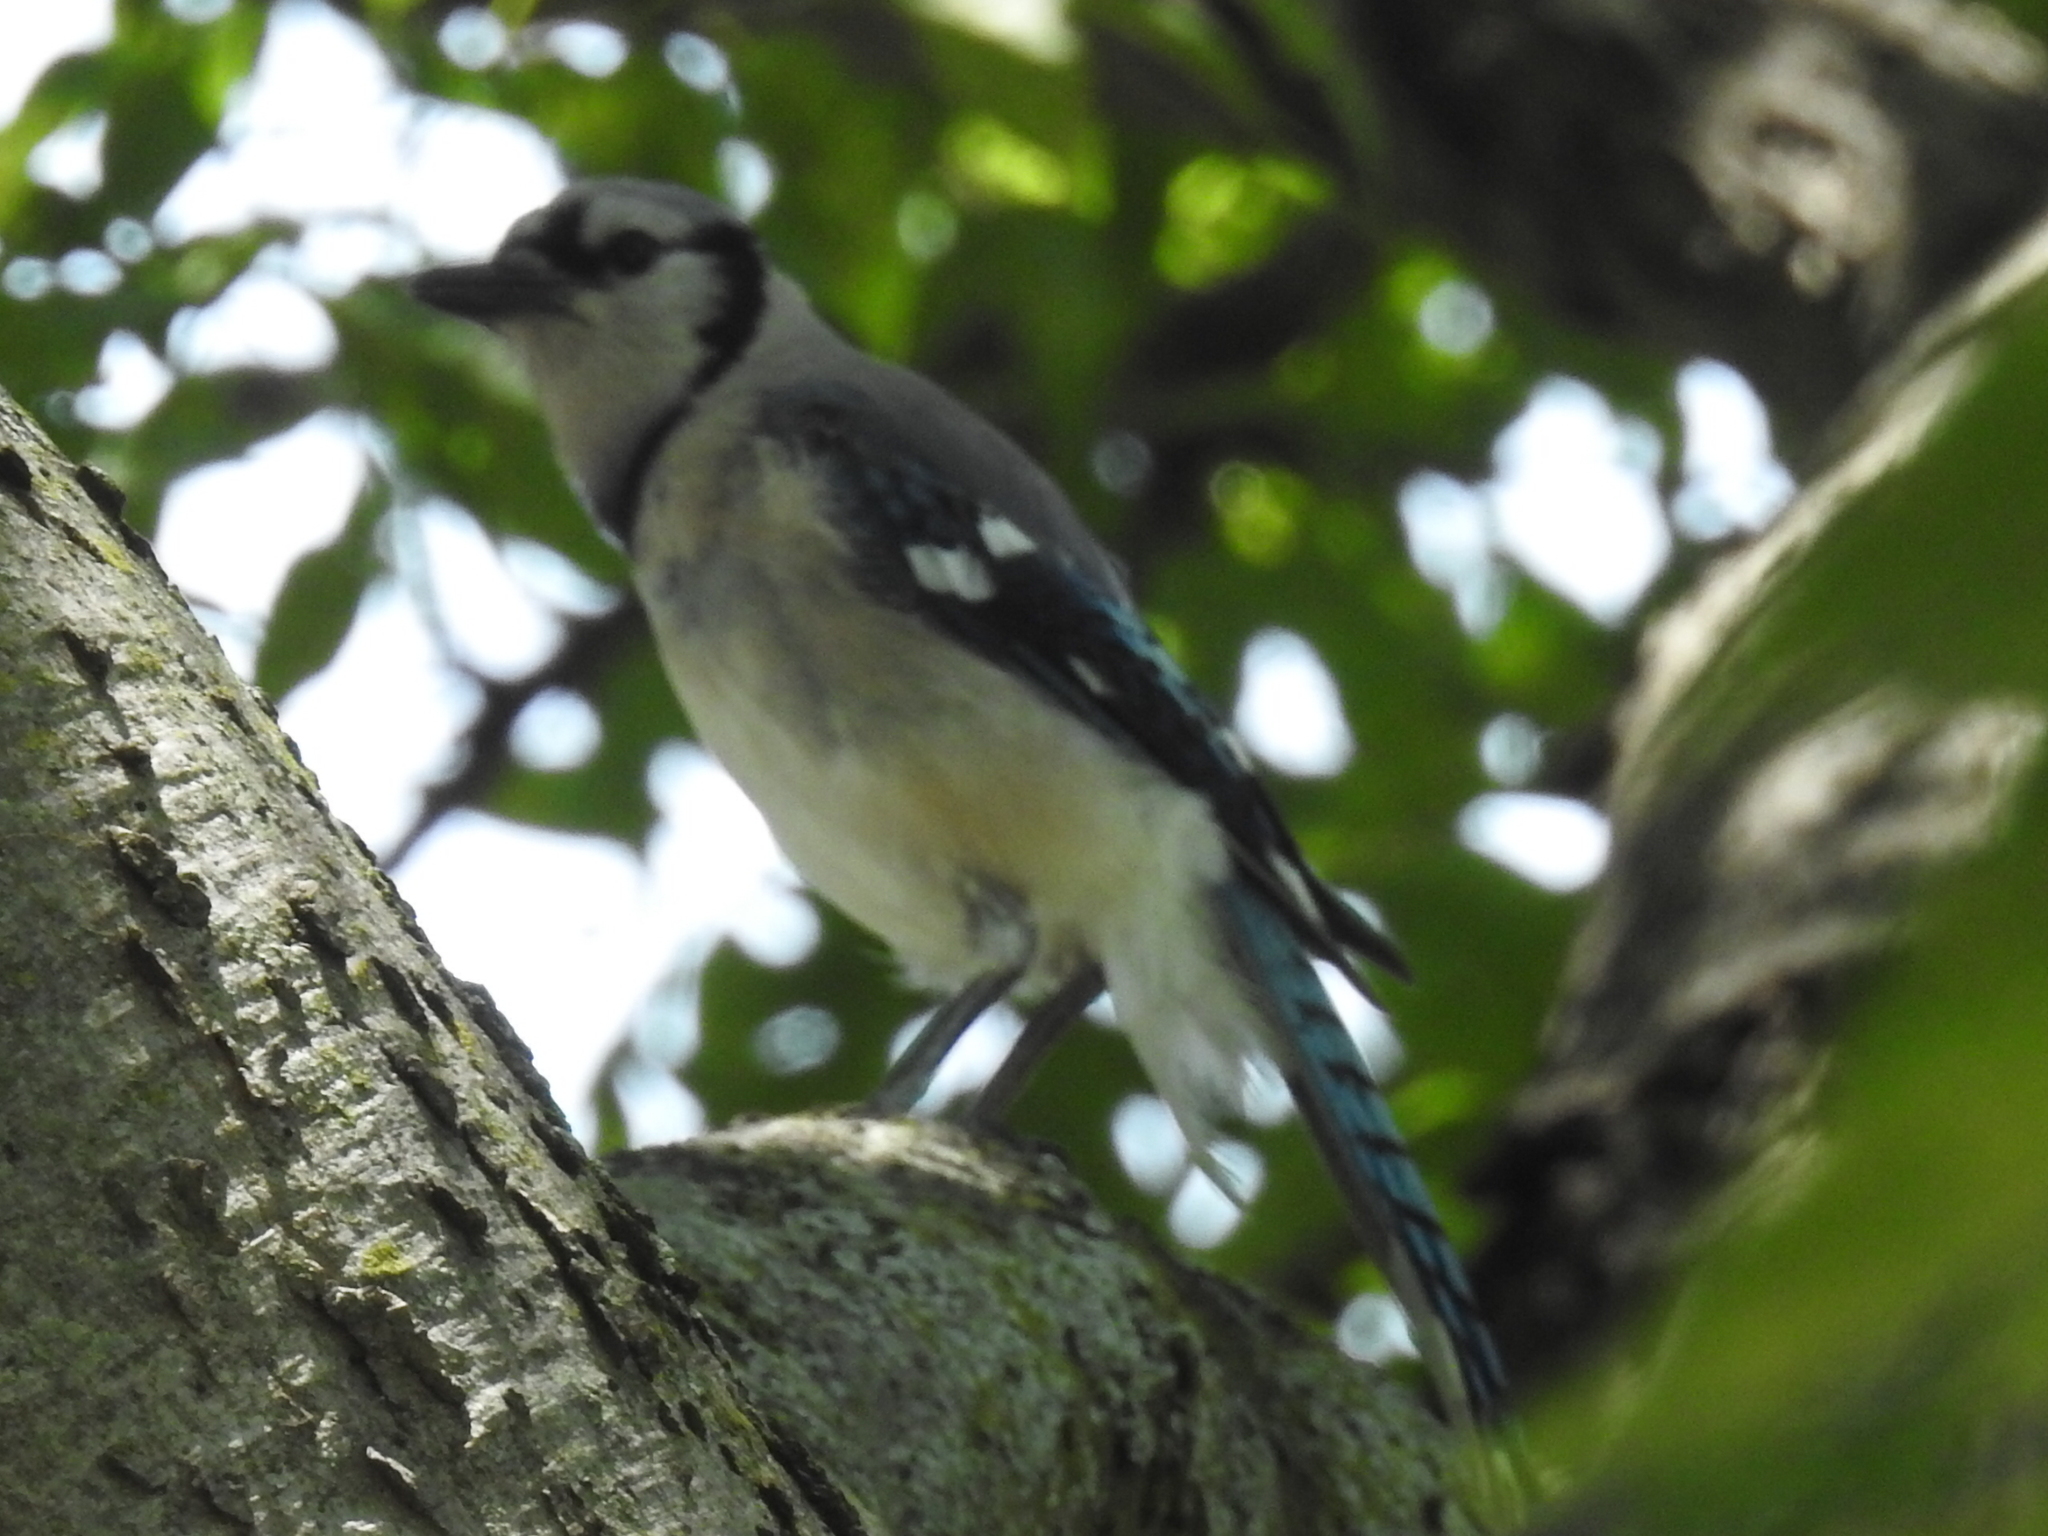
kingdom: Animalia
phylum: Chordata
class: Aves
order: Passeriformes
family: Corvidae
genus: Cyanocitta
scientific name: Cyanocitta cristata
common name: Blue jay
